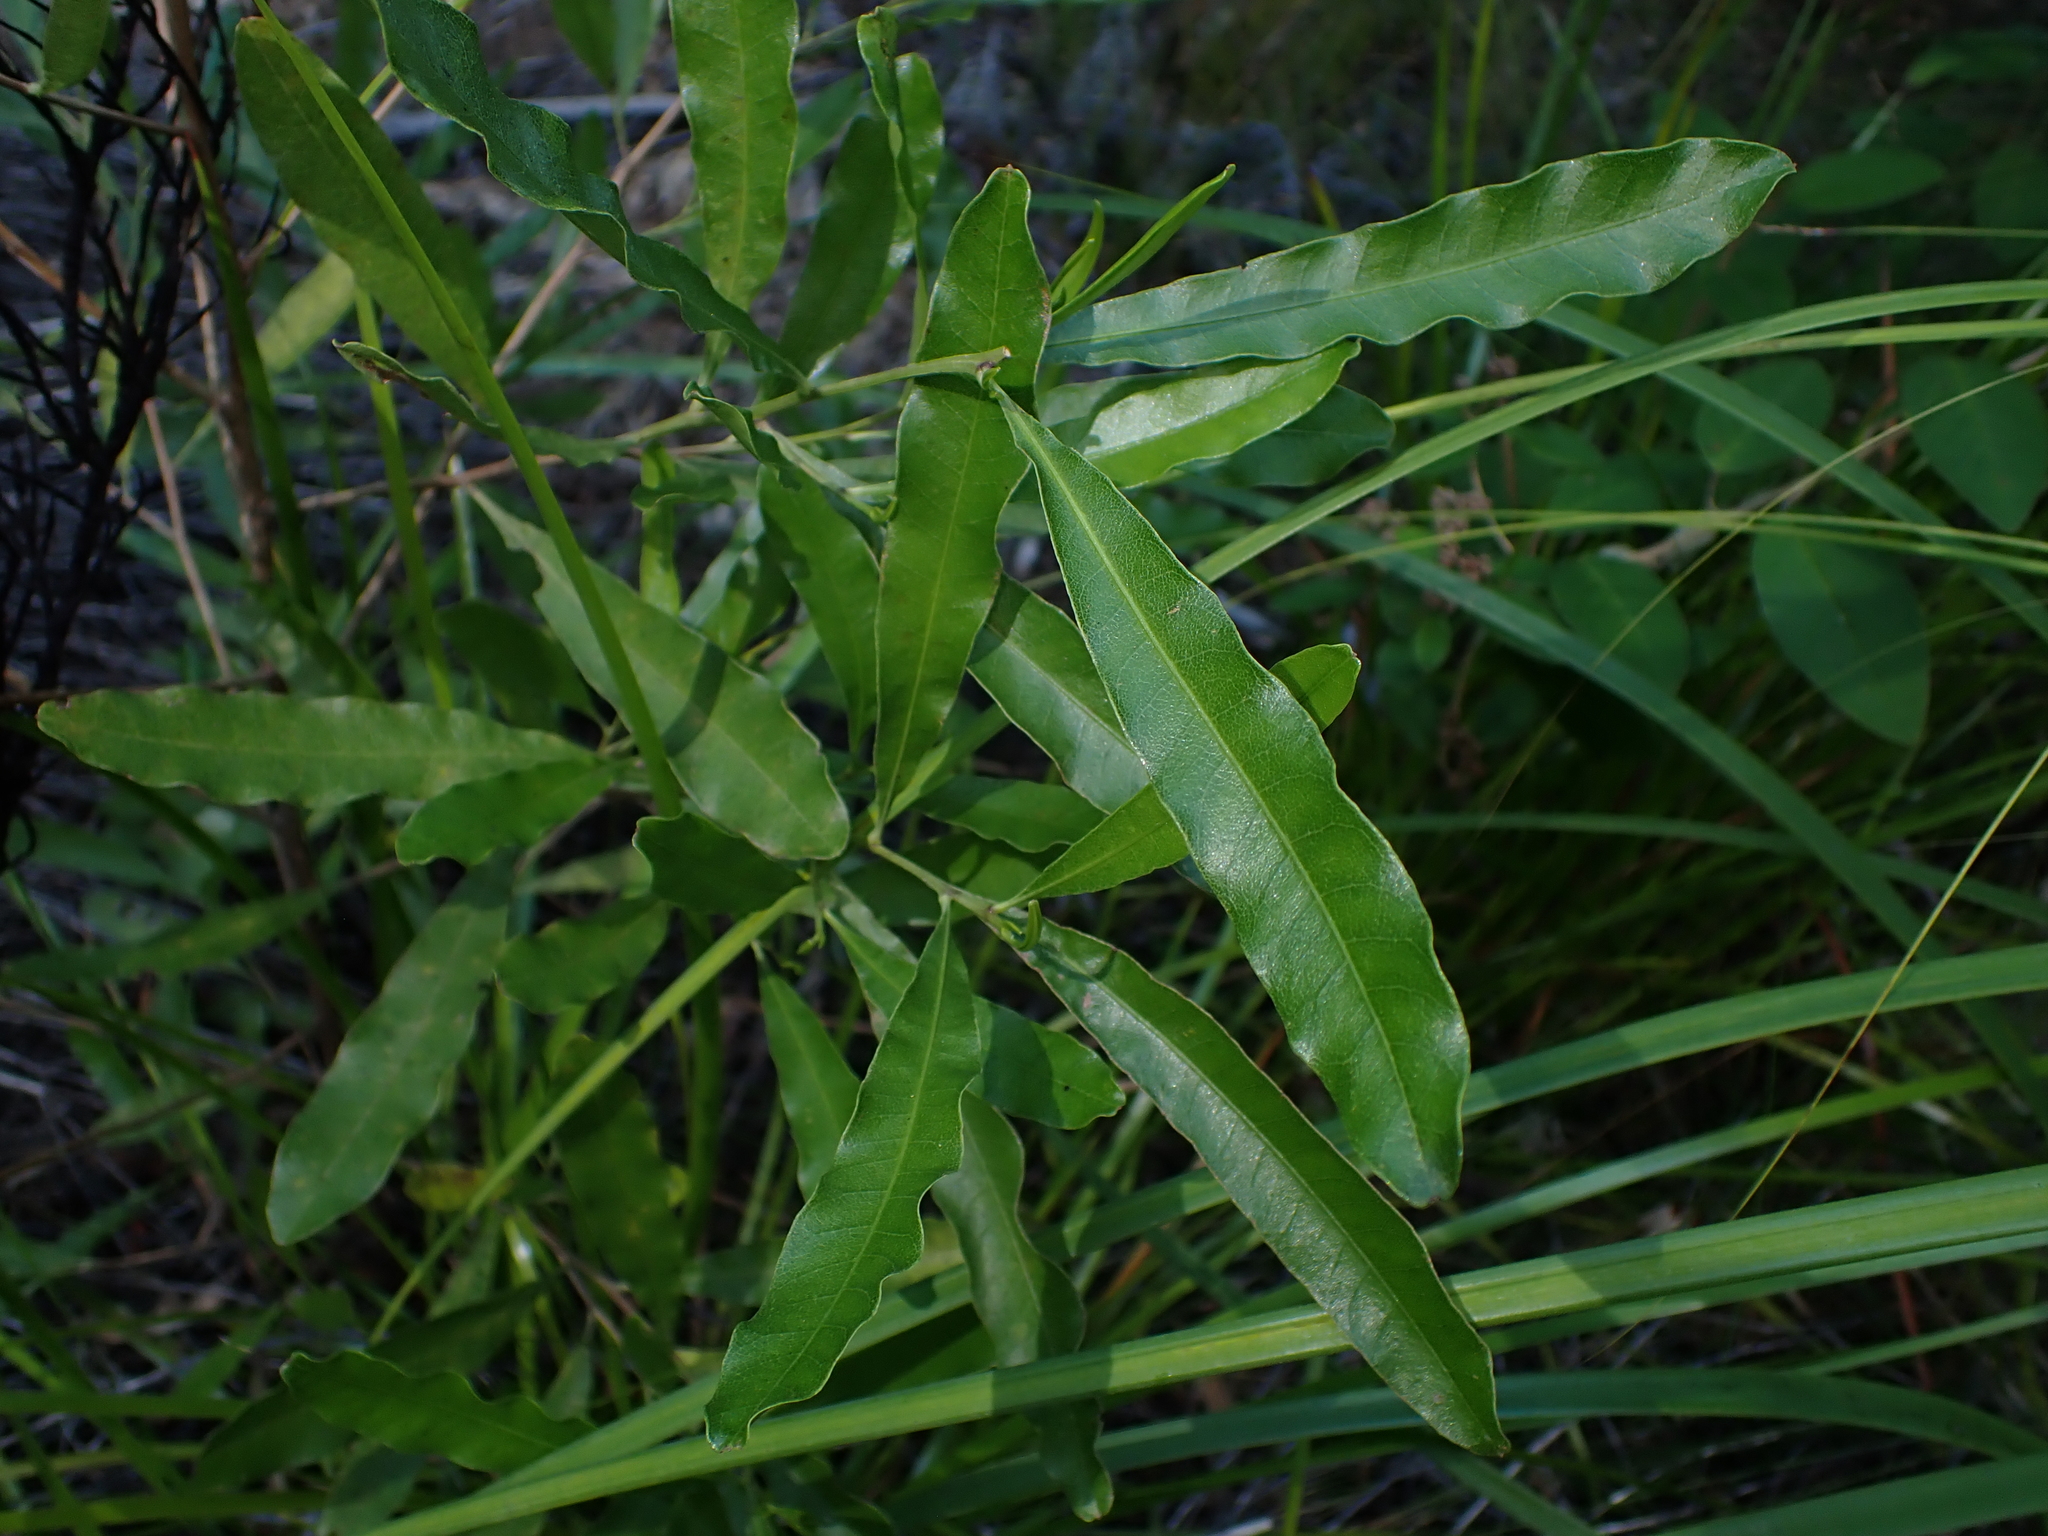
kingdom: Plantae
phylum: Tracheophyta
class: Magnoliopsida
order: Sapindales
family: Sapindaceae
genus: Dodonaea
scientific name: Dodonaea viscosa
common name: Hopbush
